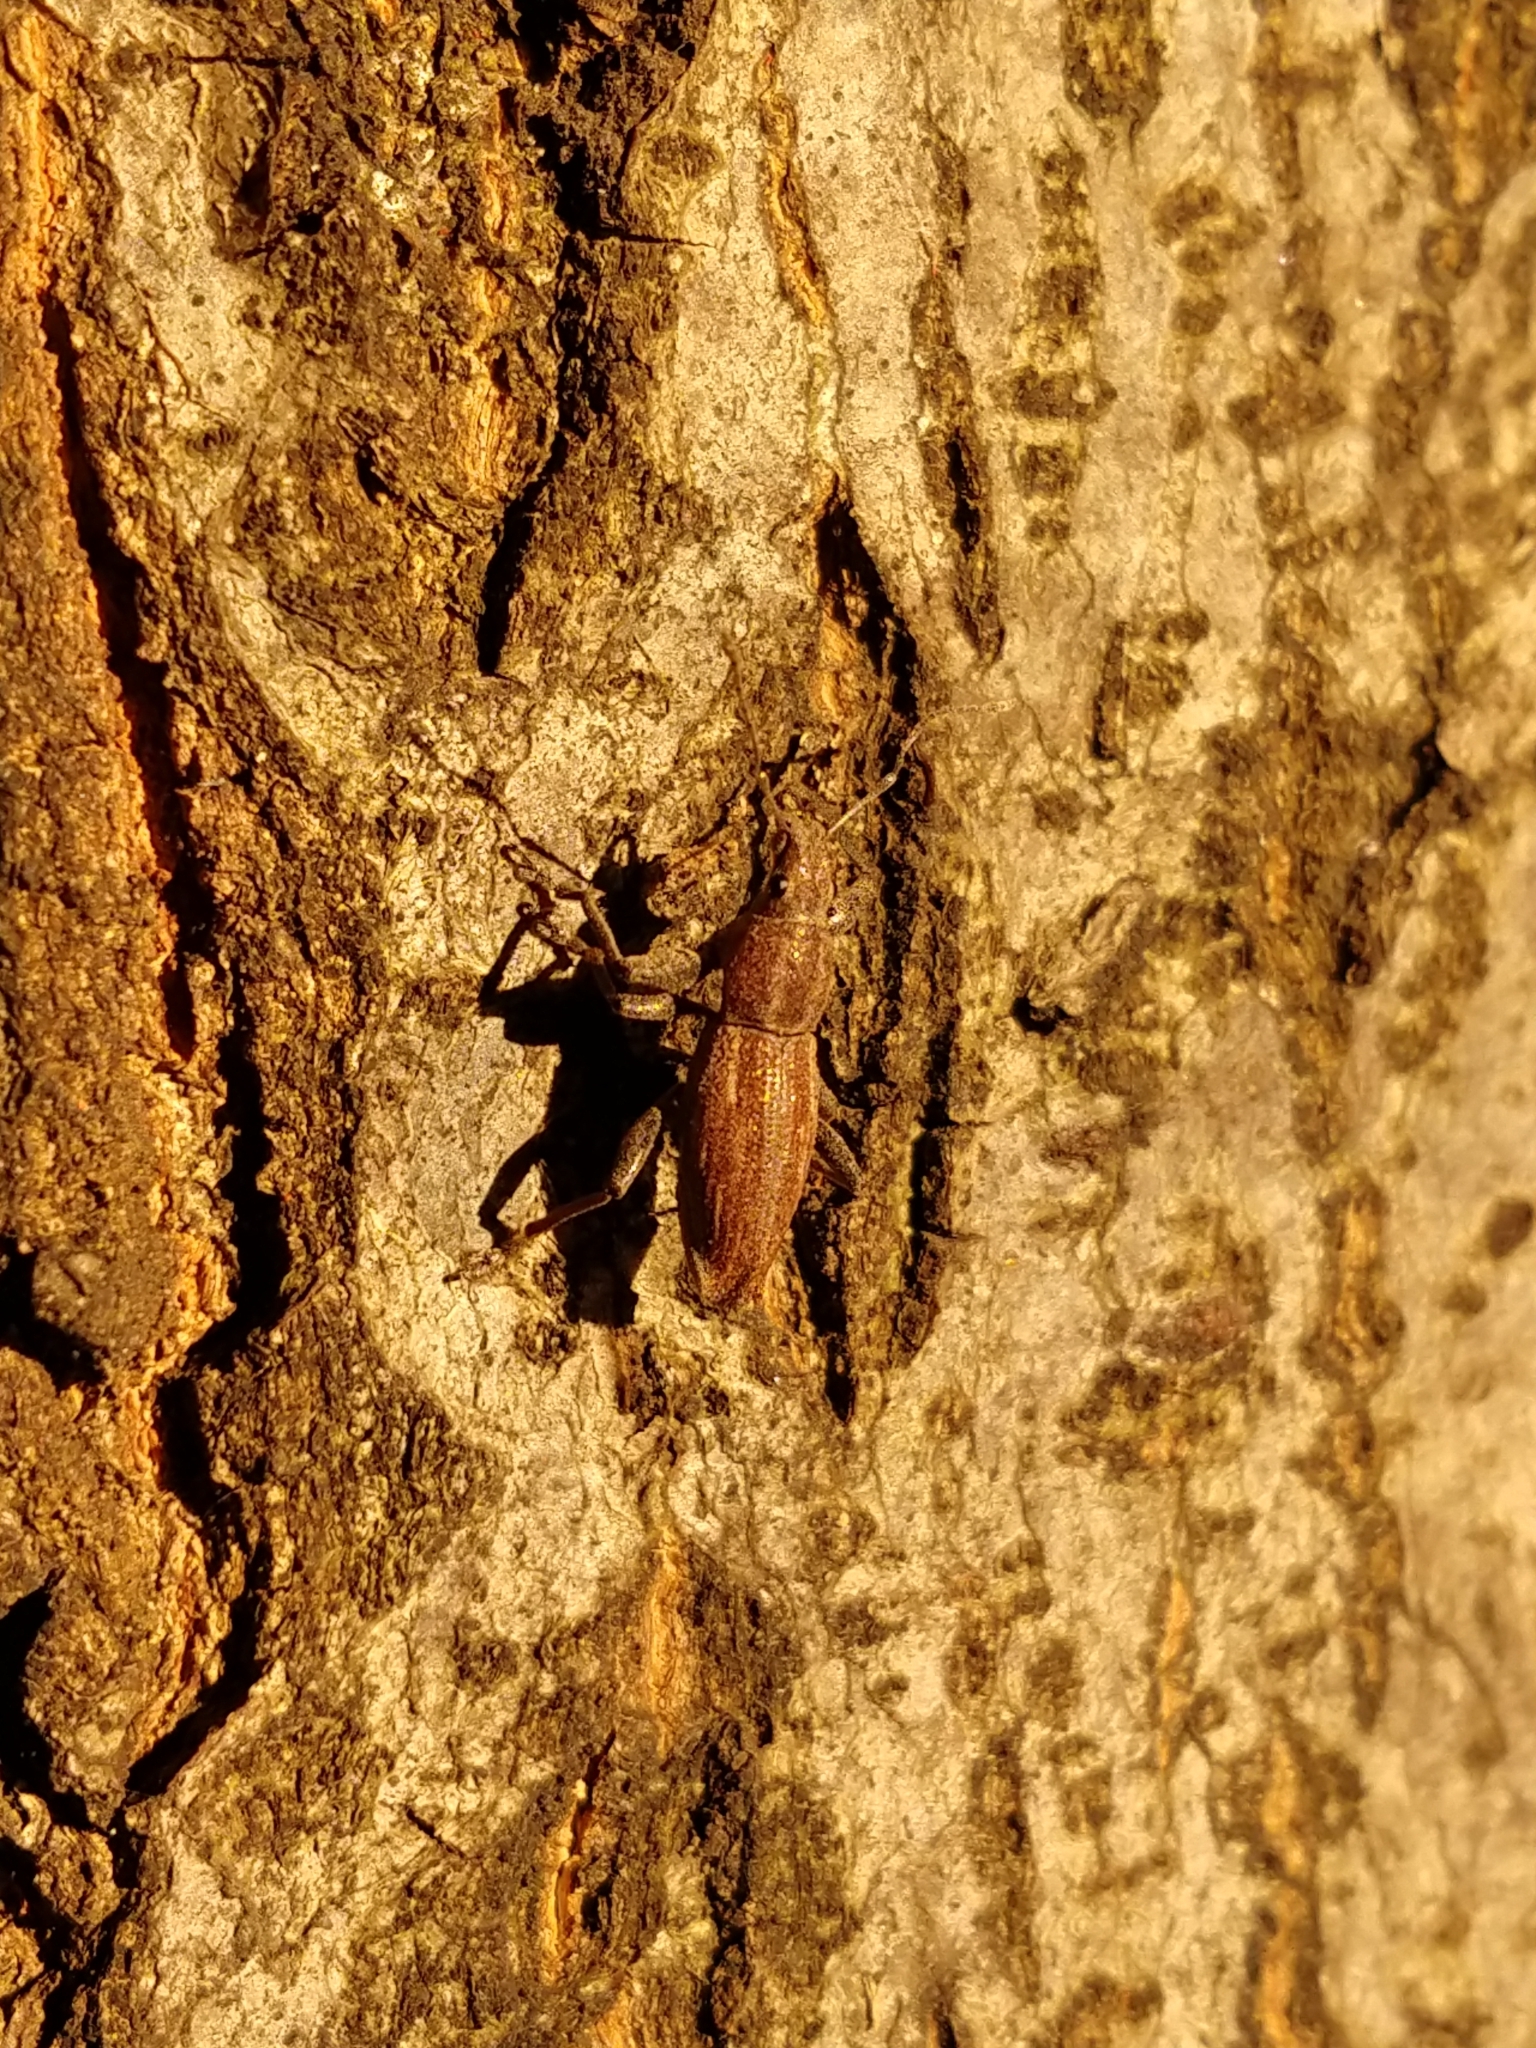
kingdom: Animalia
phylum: Arthropoda
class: Insecta
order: Coleoptera
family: Curculionidae
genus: Naupactus
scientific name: Naupactus xanthographus
